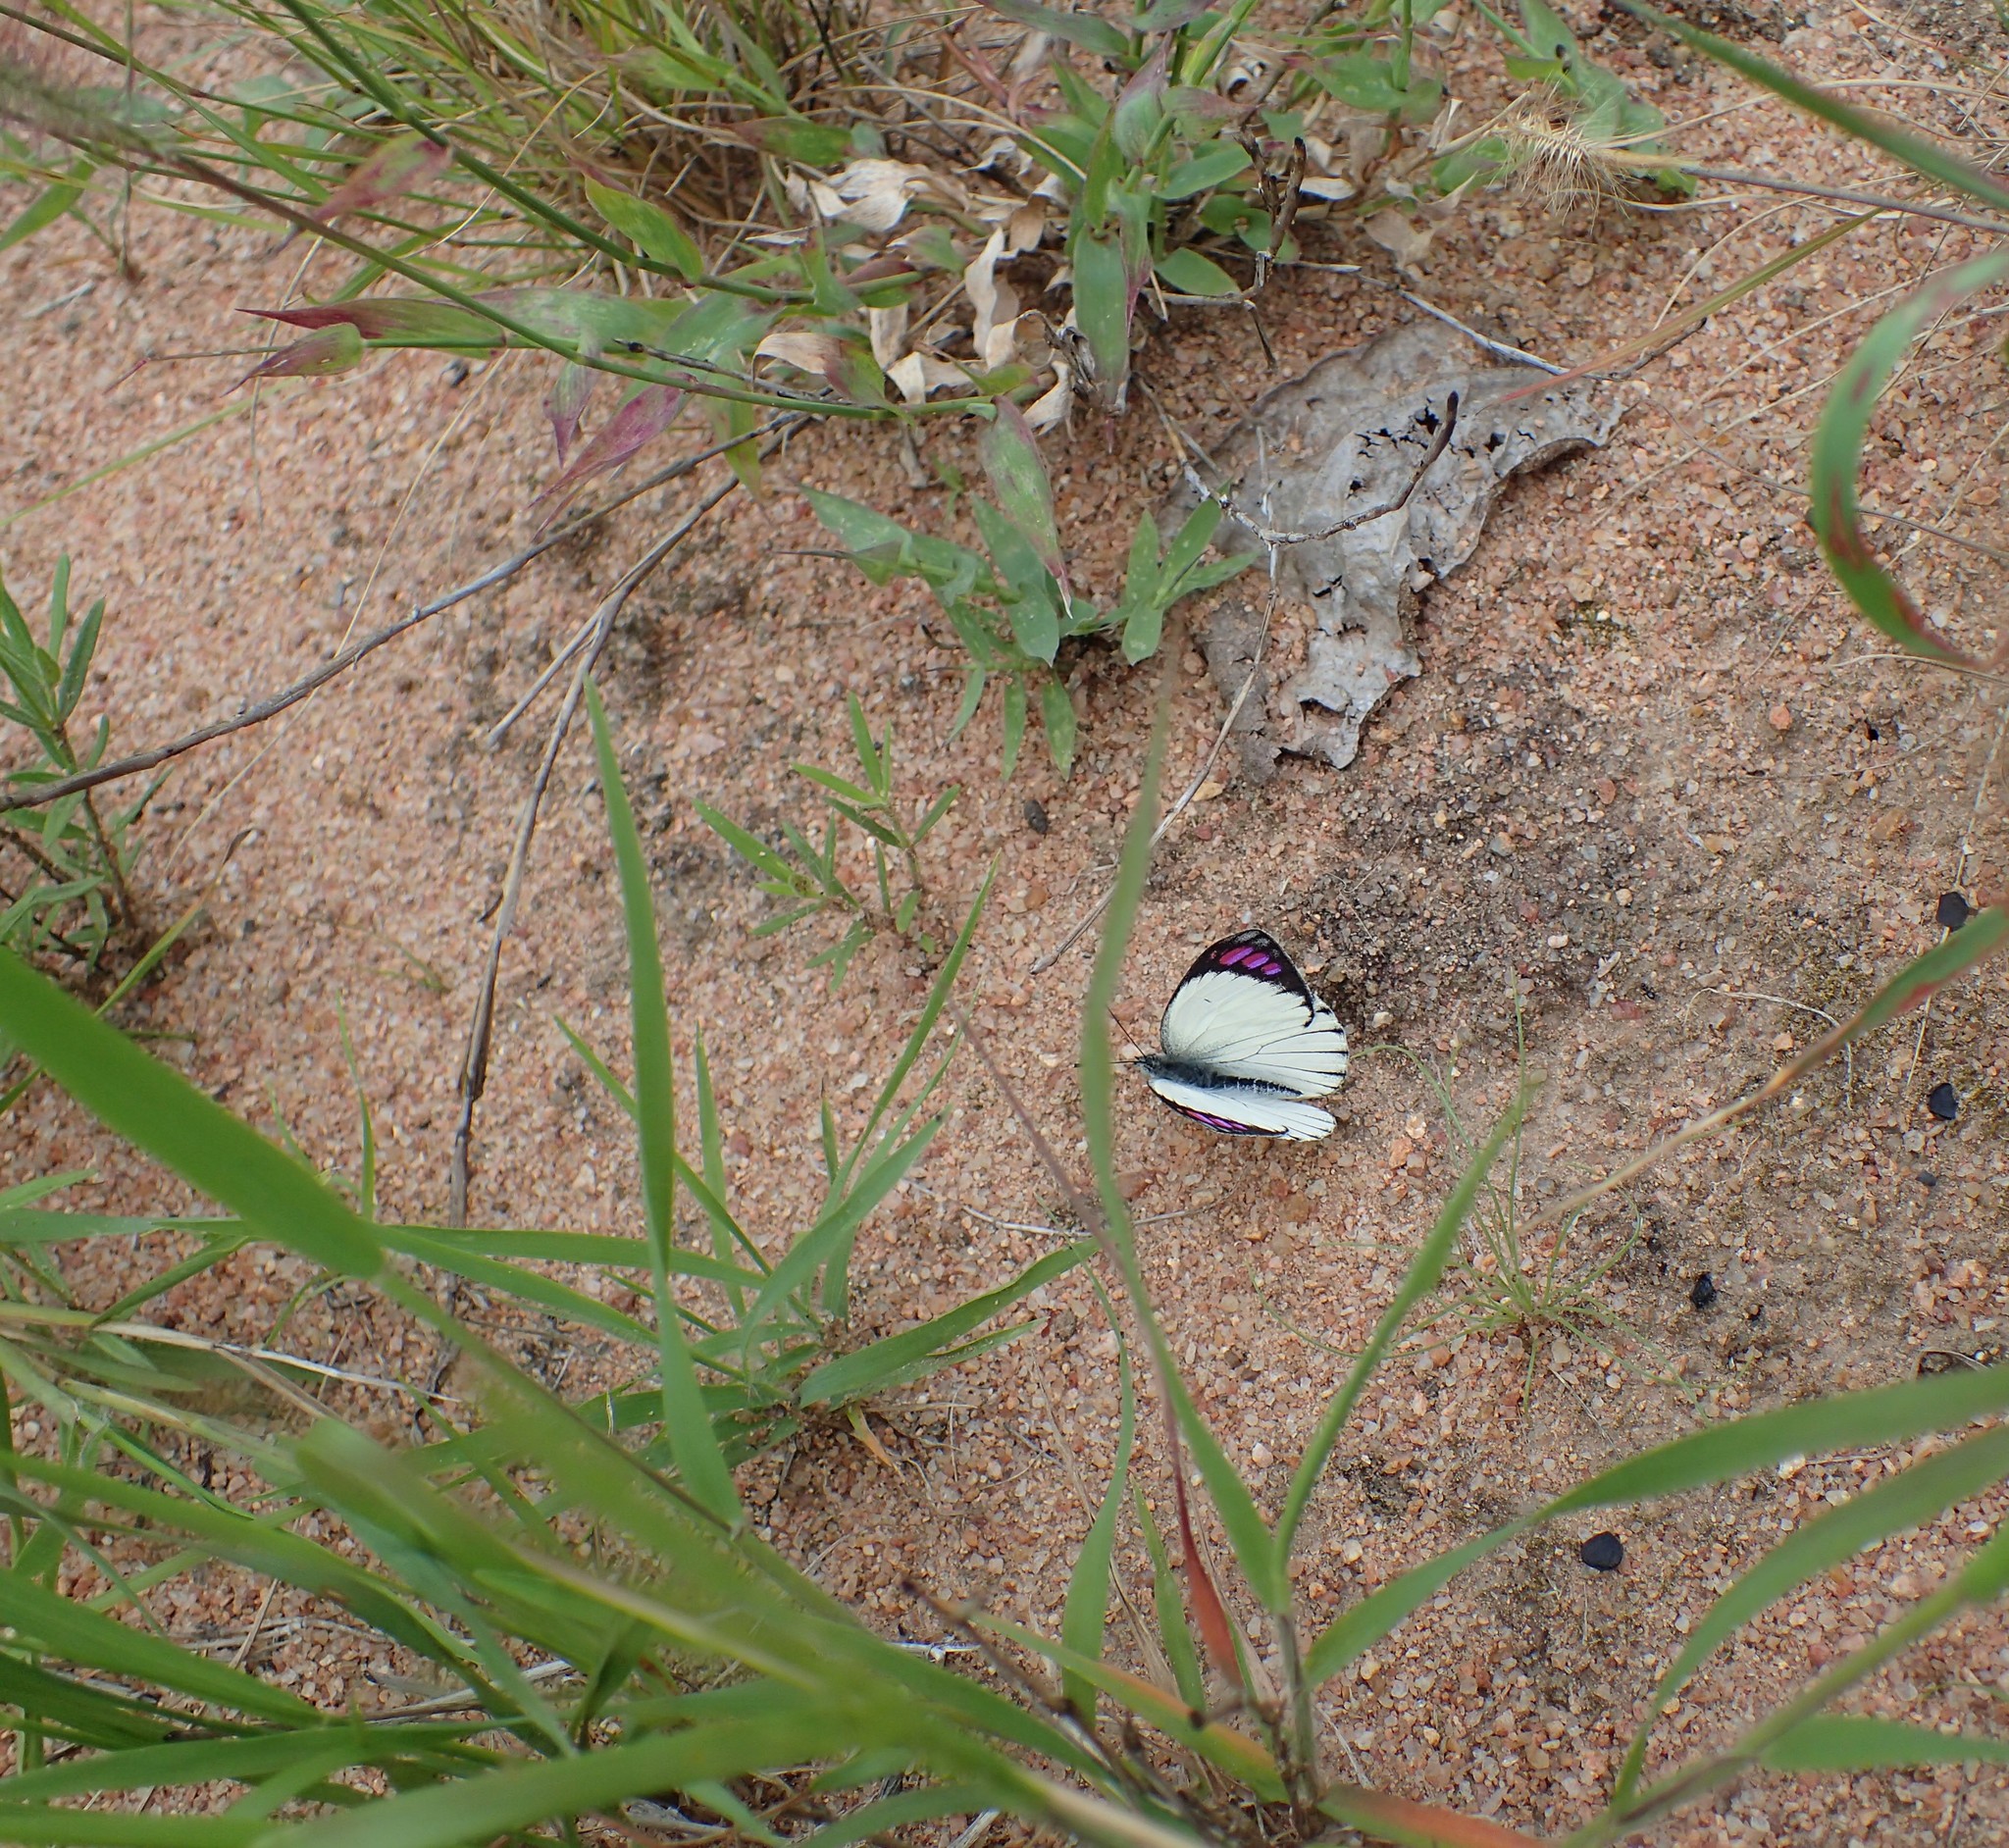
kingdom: Animalia
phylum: Arthropoda
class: Insecta
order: Lepidoptera
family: Pieridae
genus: Colotis
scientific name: Colotis ione
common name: Bushveld purple tip
